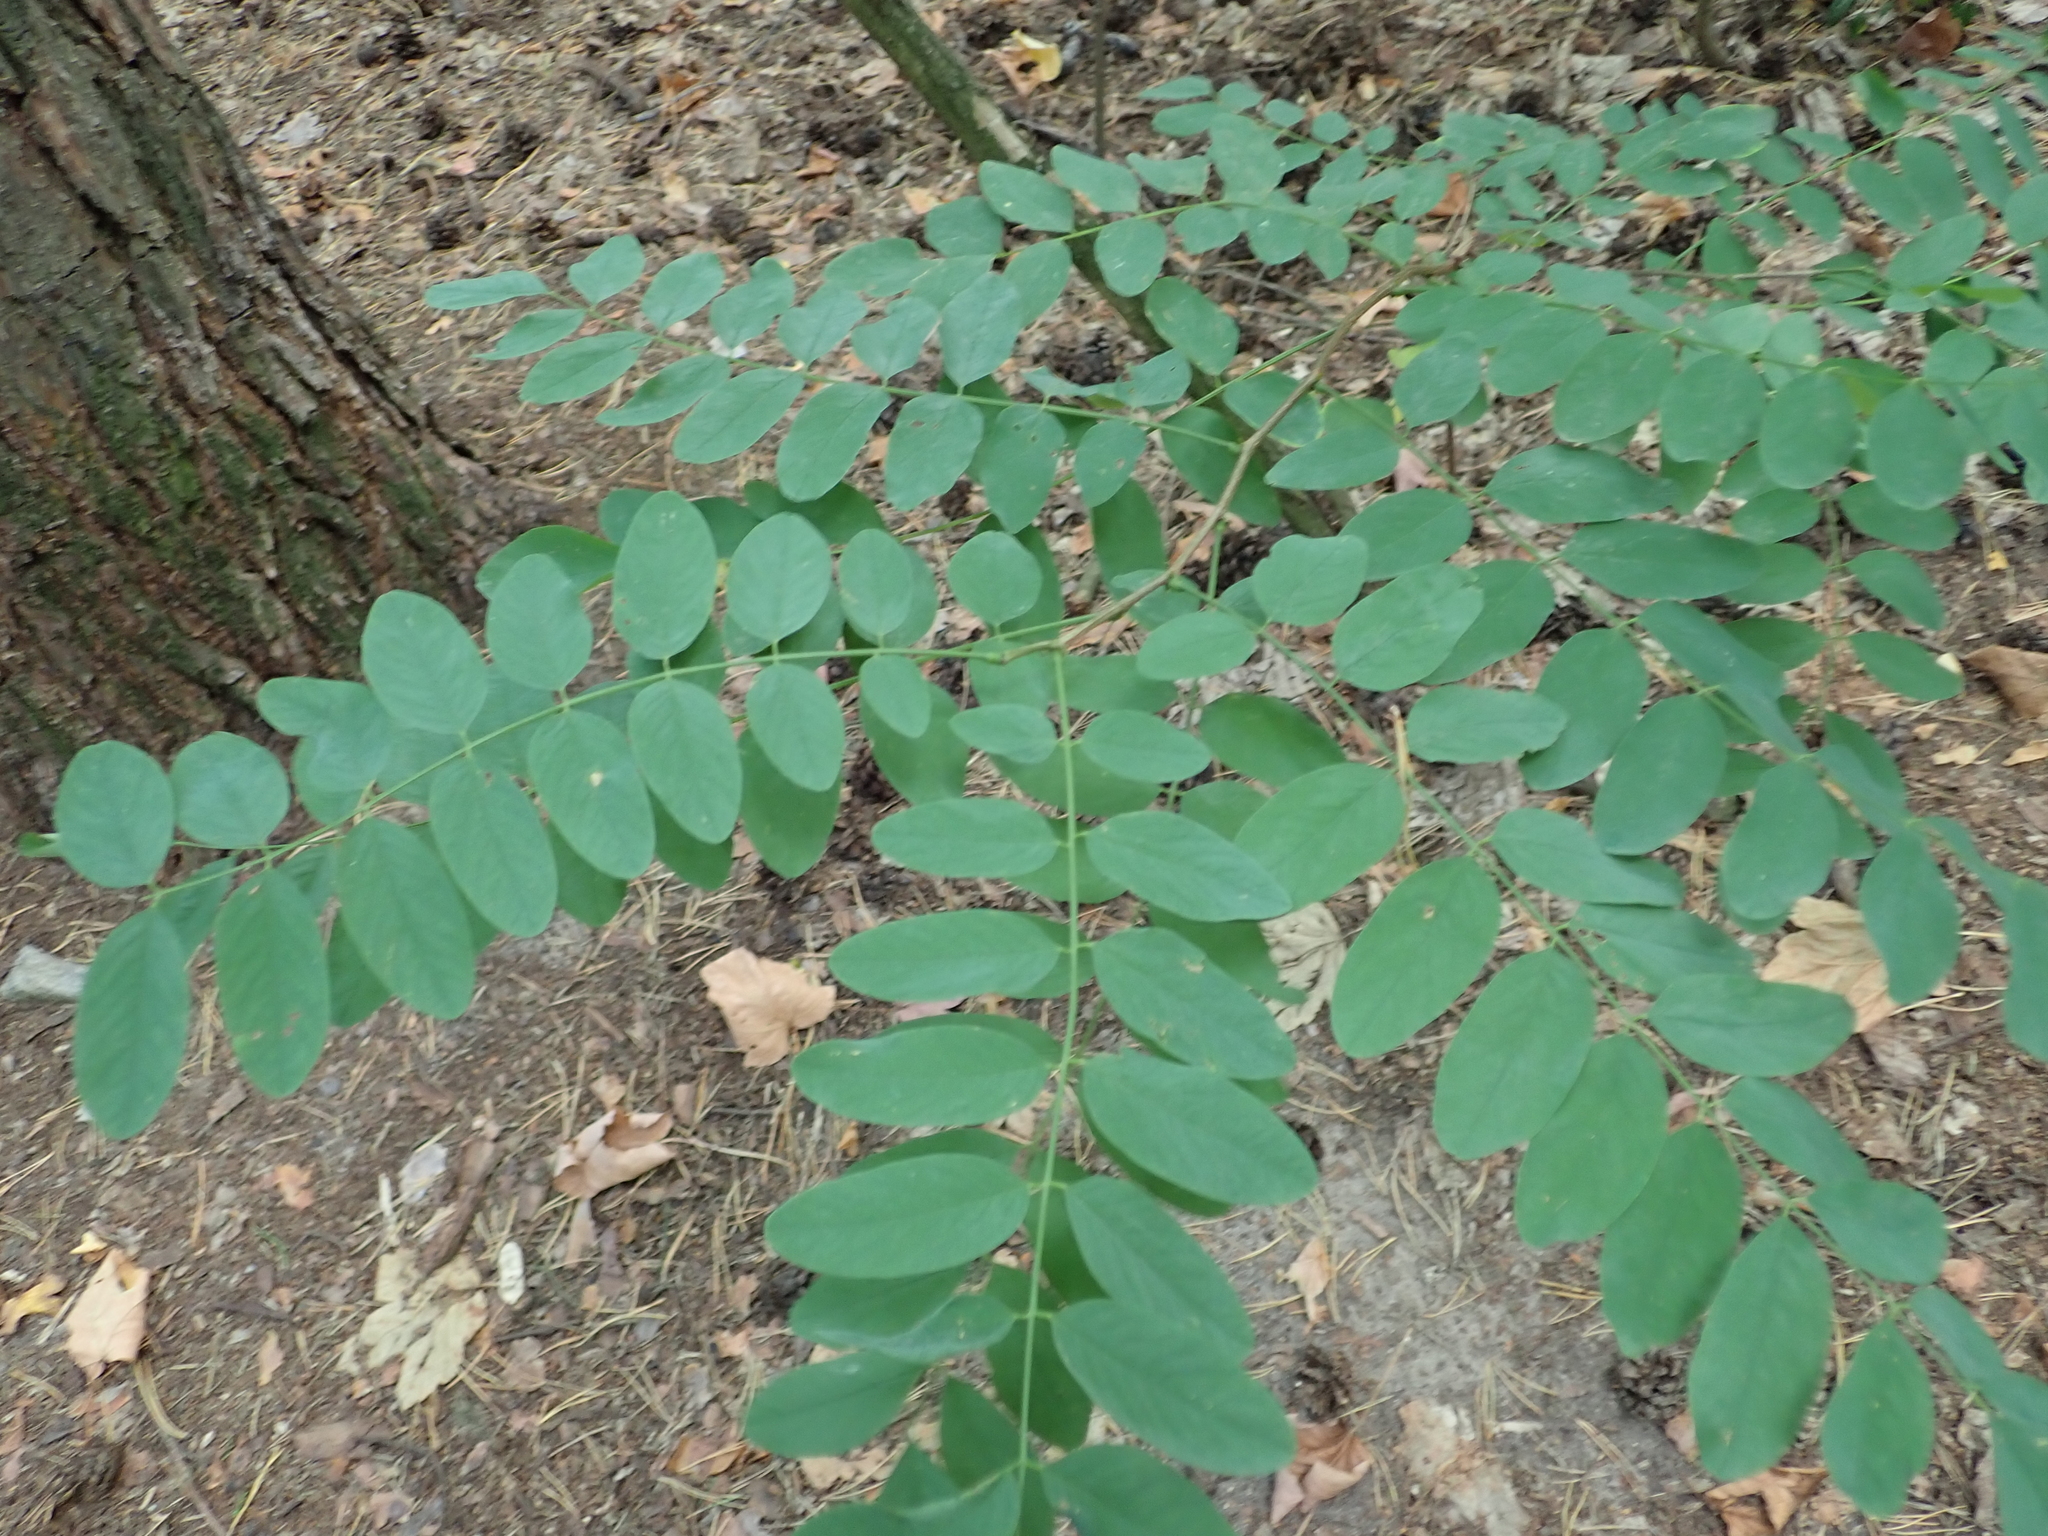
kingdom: Plantae
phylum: Tracheophyta
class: Magnoliopsida
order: Fabales
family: Fabaceae
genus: Robinia
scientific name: Robinia pseudoacacia
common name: Black locust
